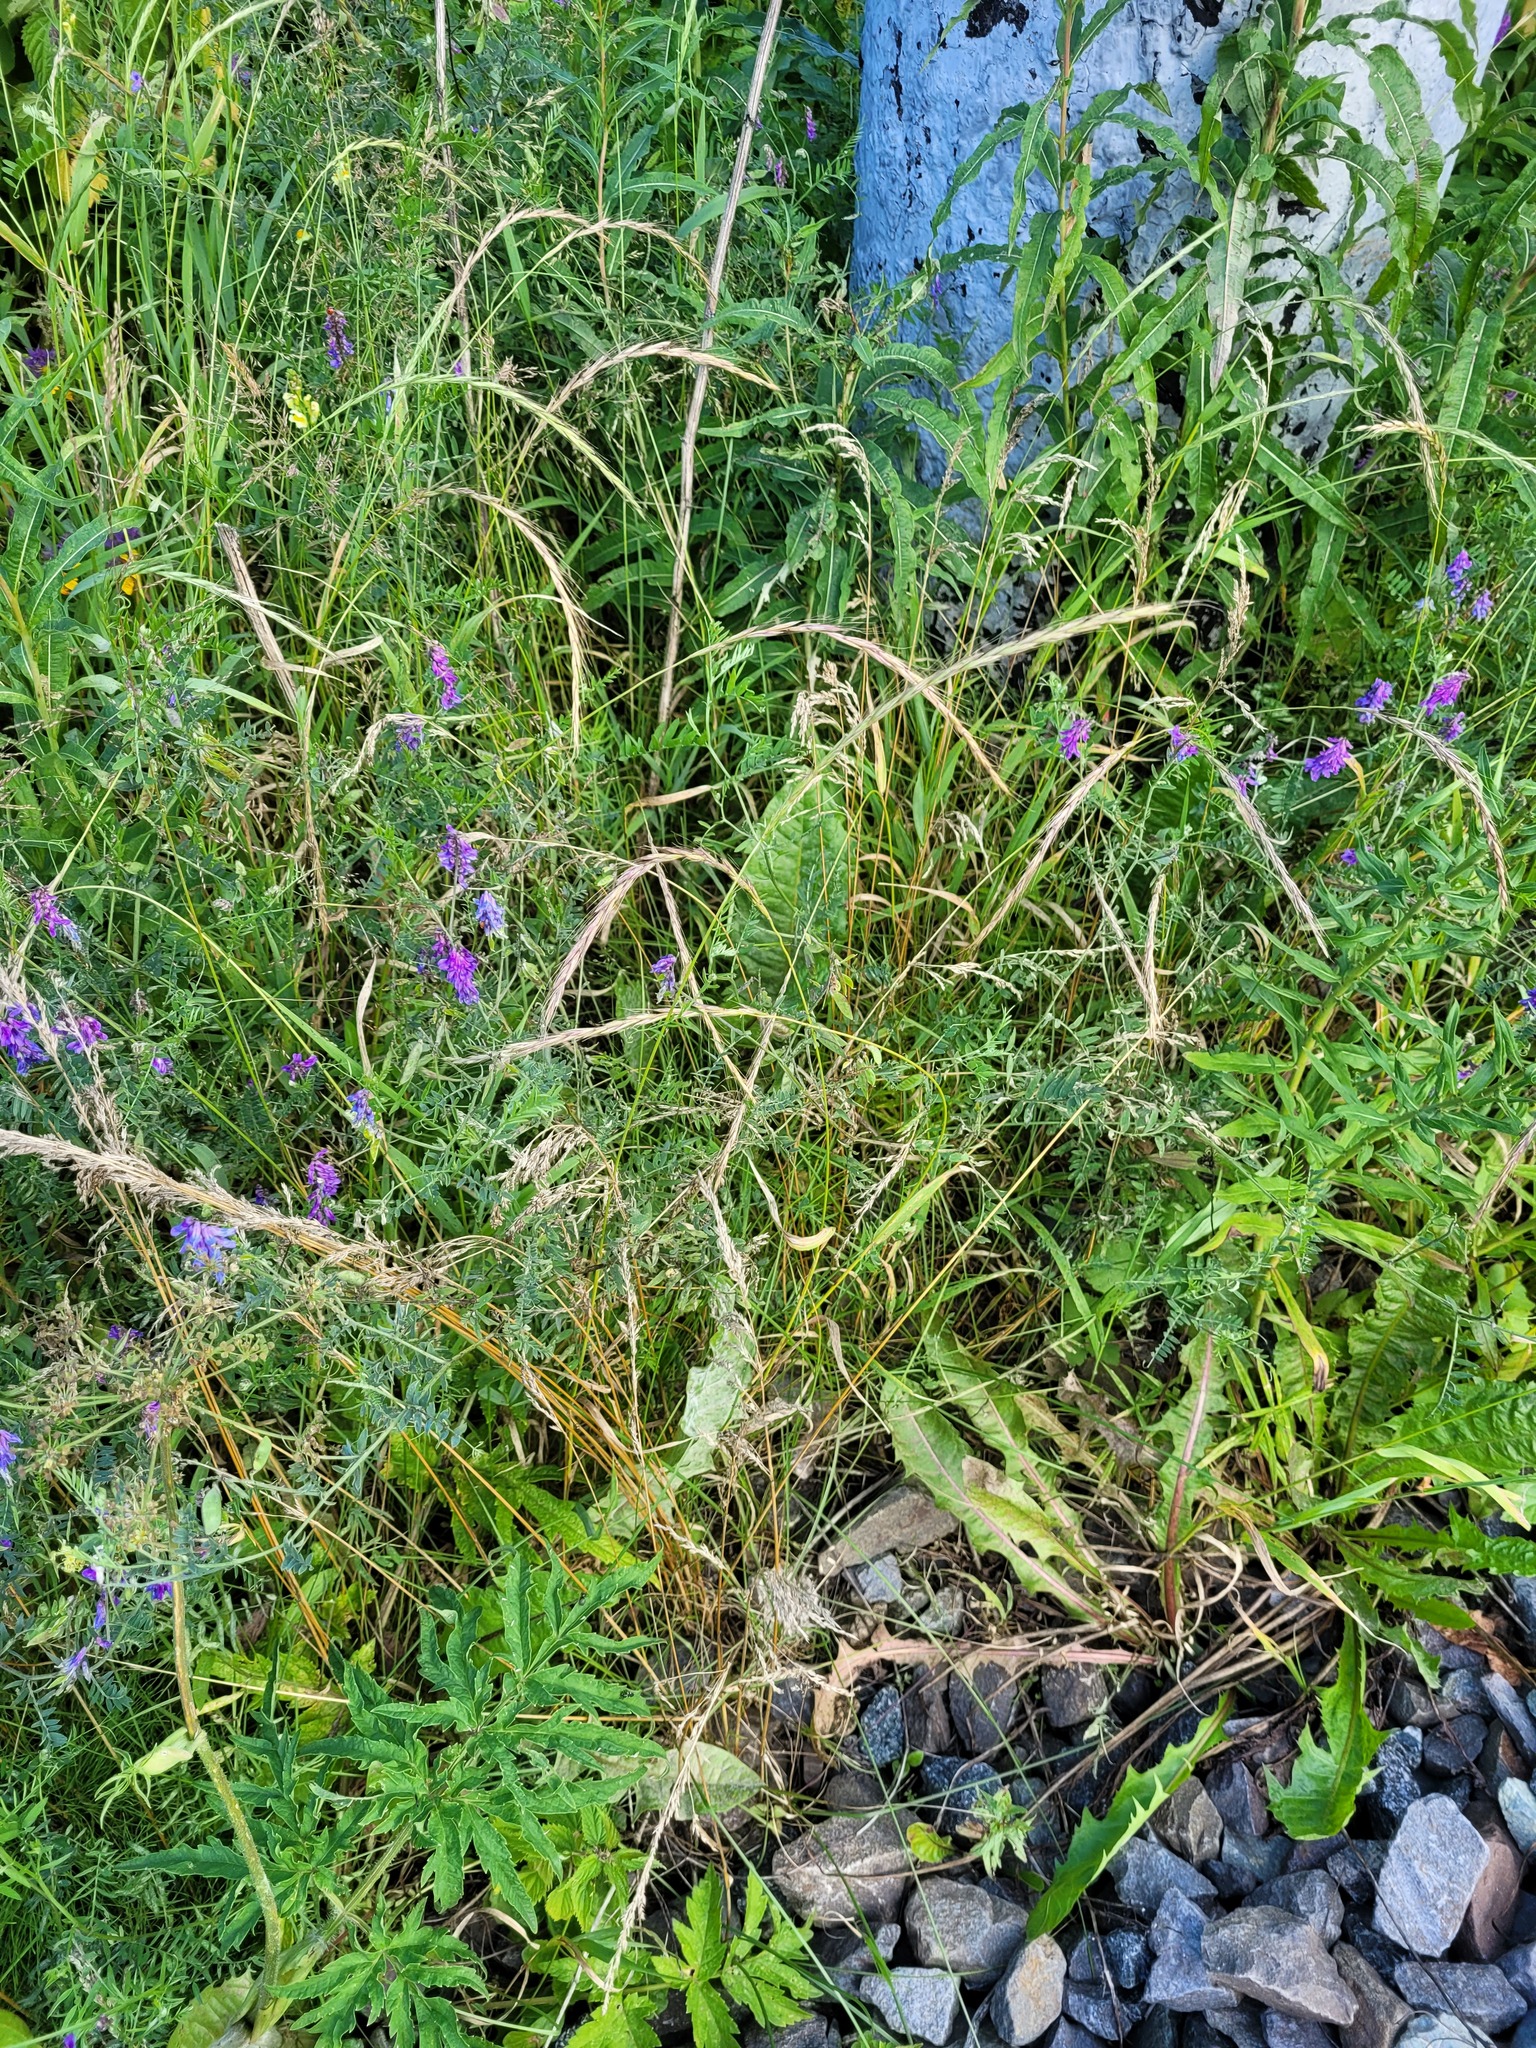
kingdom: Plantae
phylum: Tracheophyta
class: Liliopsida
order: Poales
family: Poaceae
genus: Elymus
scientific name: Elymus caninus
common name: Bearded couch
